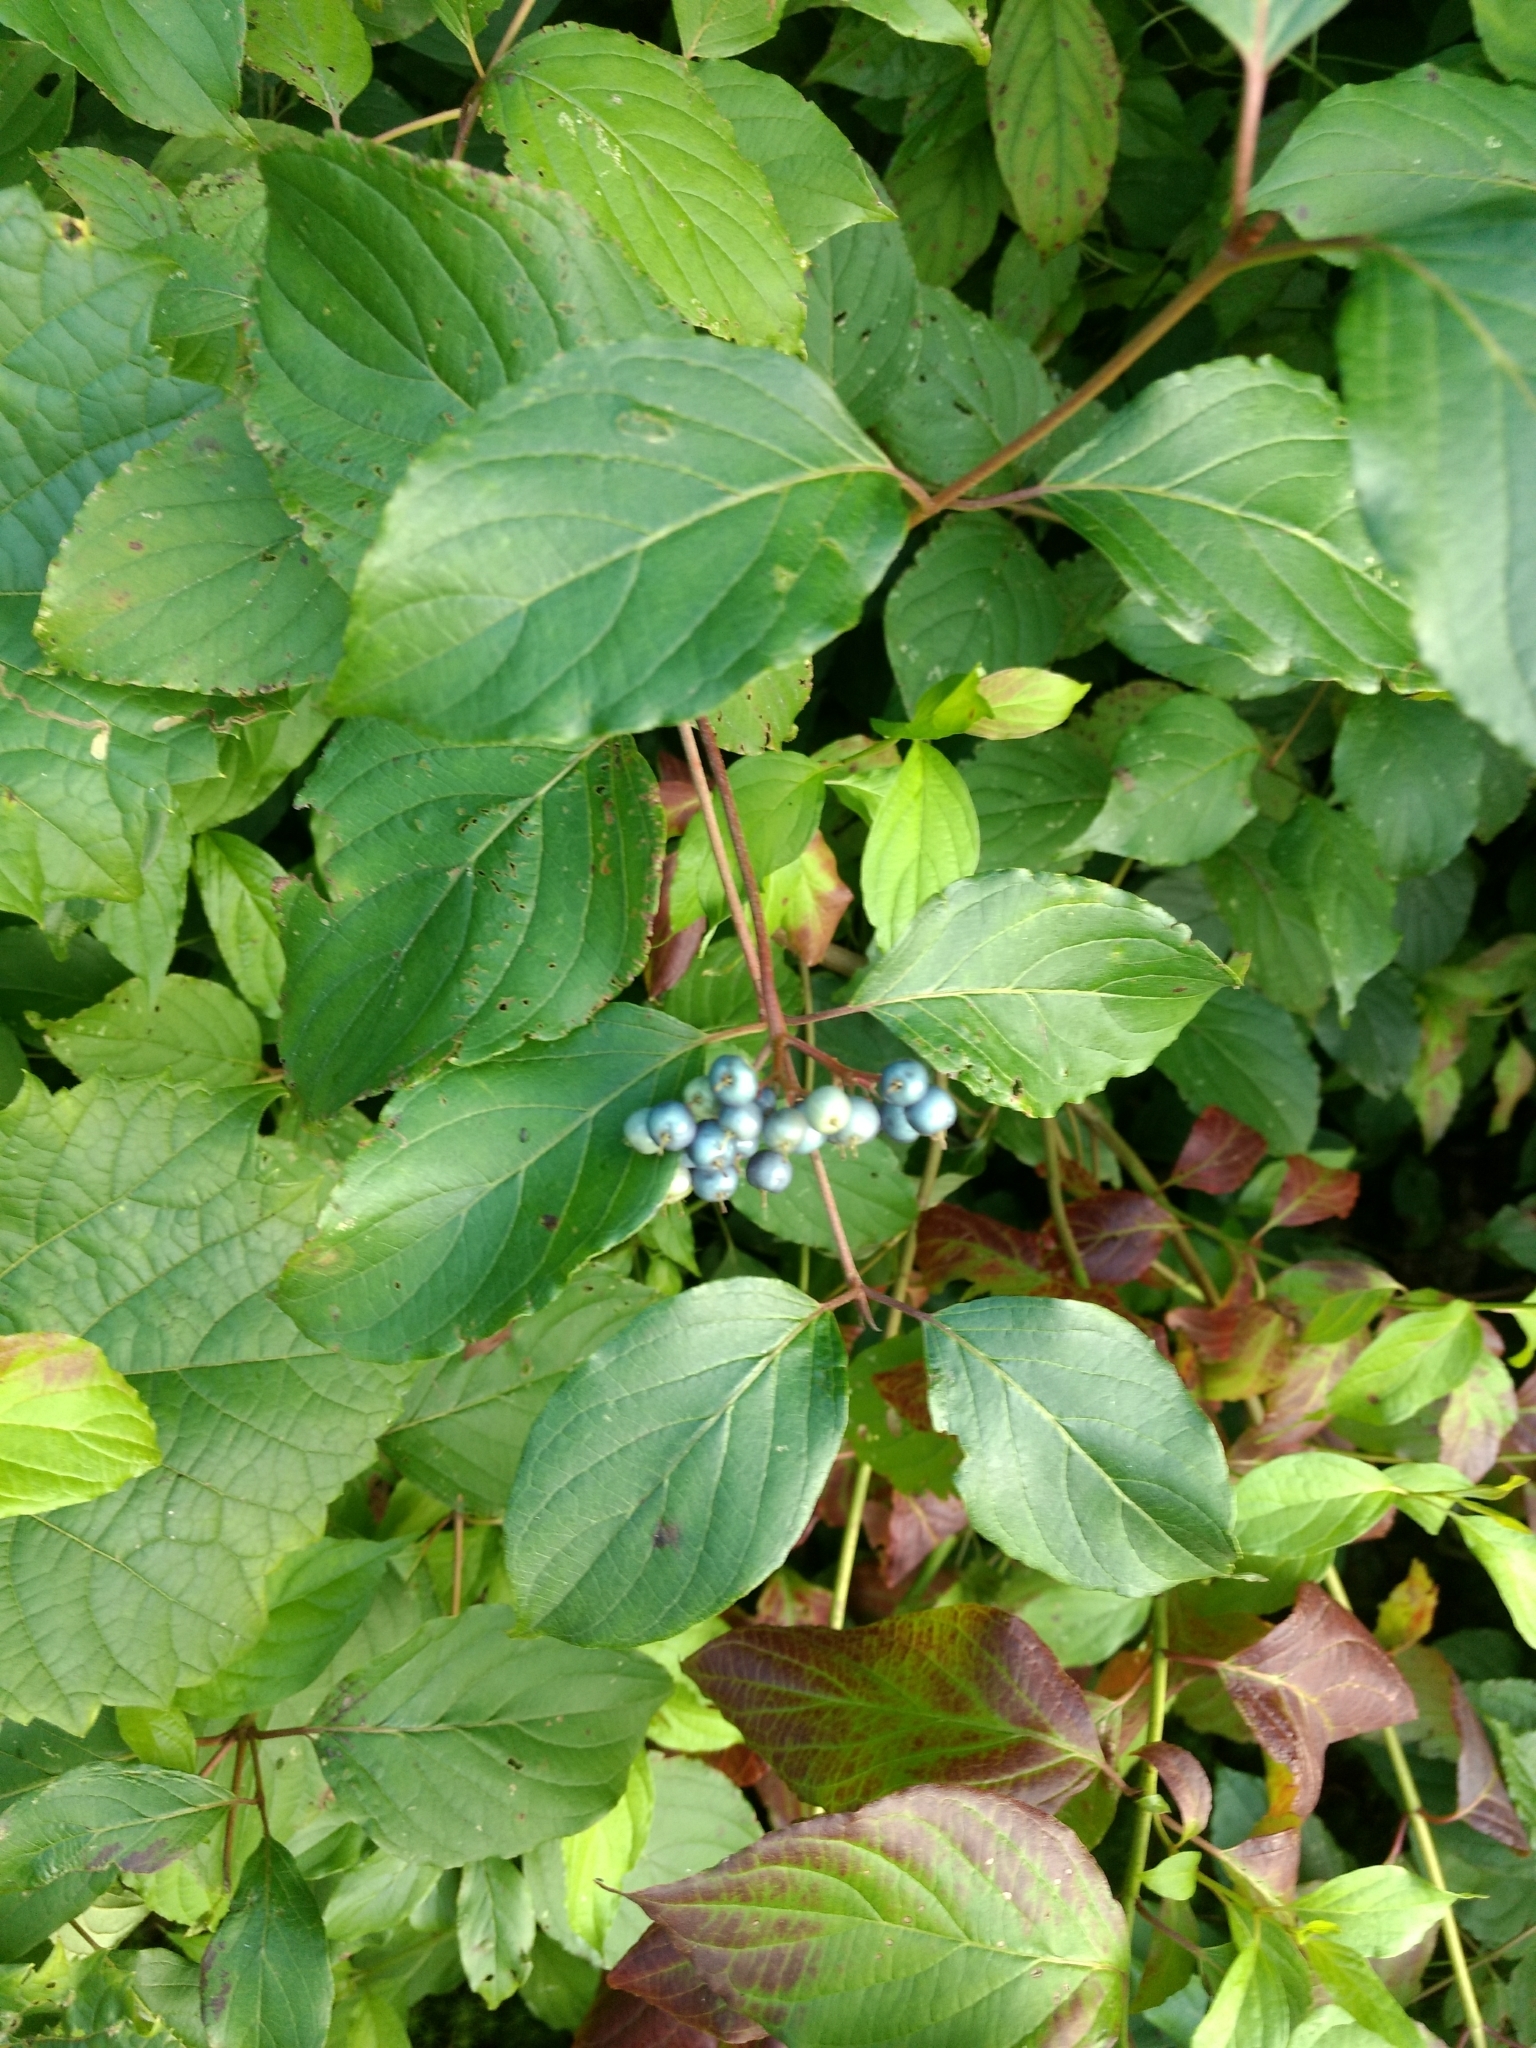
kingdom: Plantae
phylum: Tracheophyta
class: Magnoliopsida
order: Cornales
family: Cornaceae
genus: Cornus
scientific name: Cornus amomum
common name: Silky dogwood
